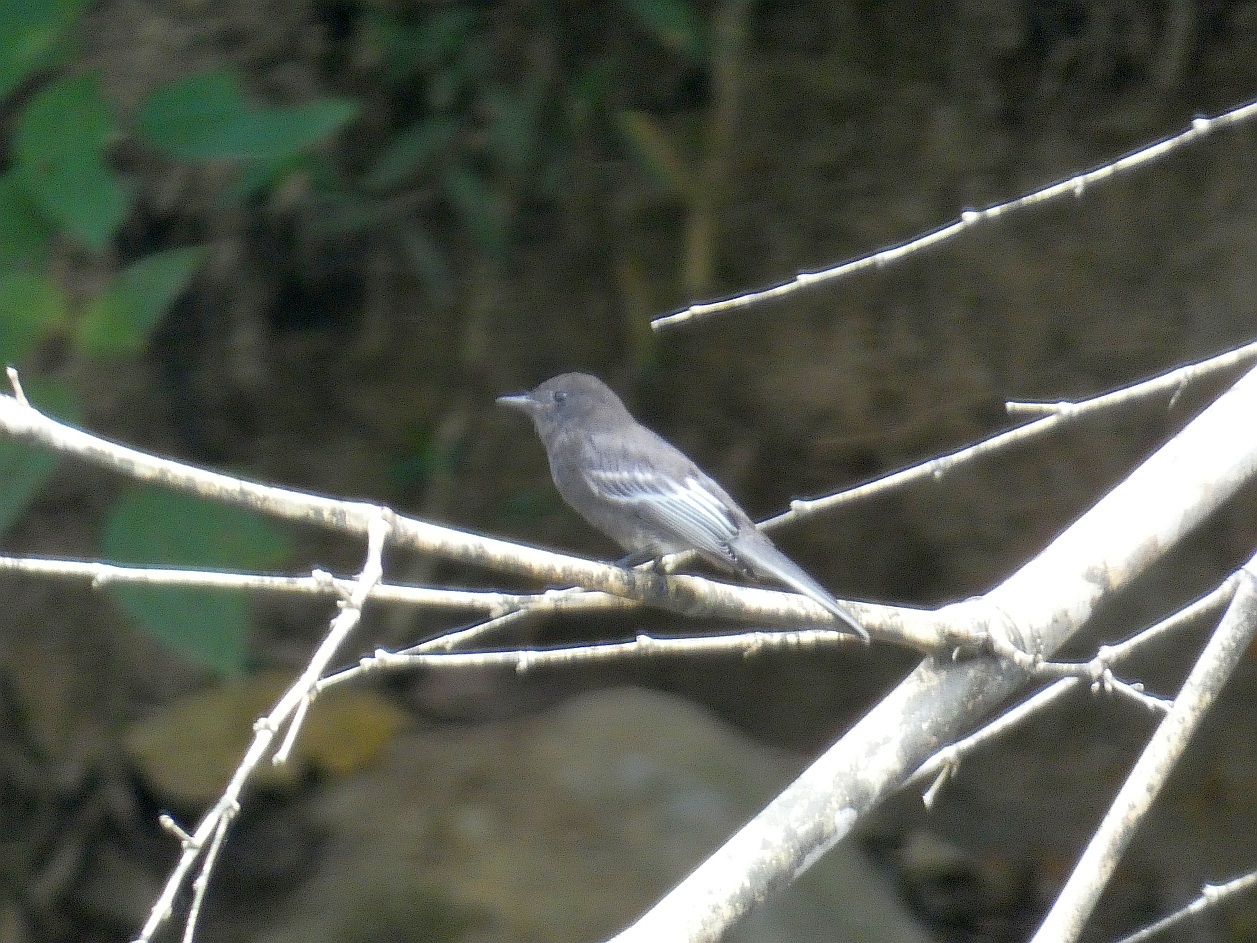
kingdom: Animalia
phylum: Chordata
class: Aves
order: Passeriformes
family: Tyrannidae
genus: Sayornis
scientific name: Sayornis nigricans
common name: Black phoebe
